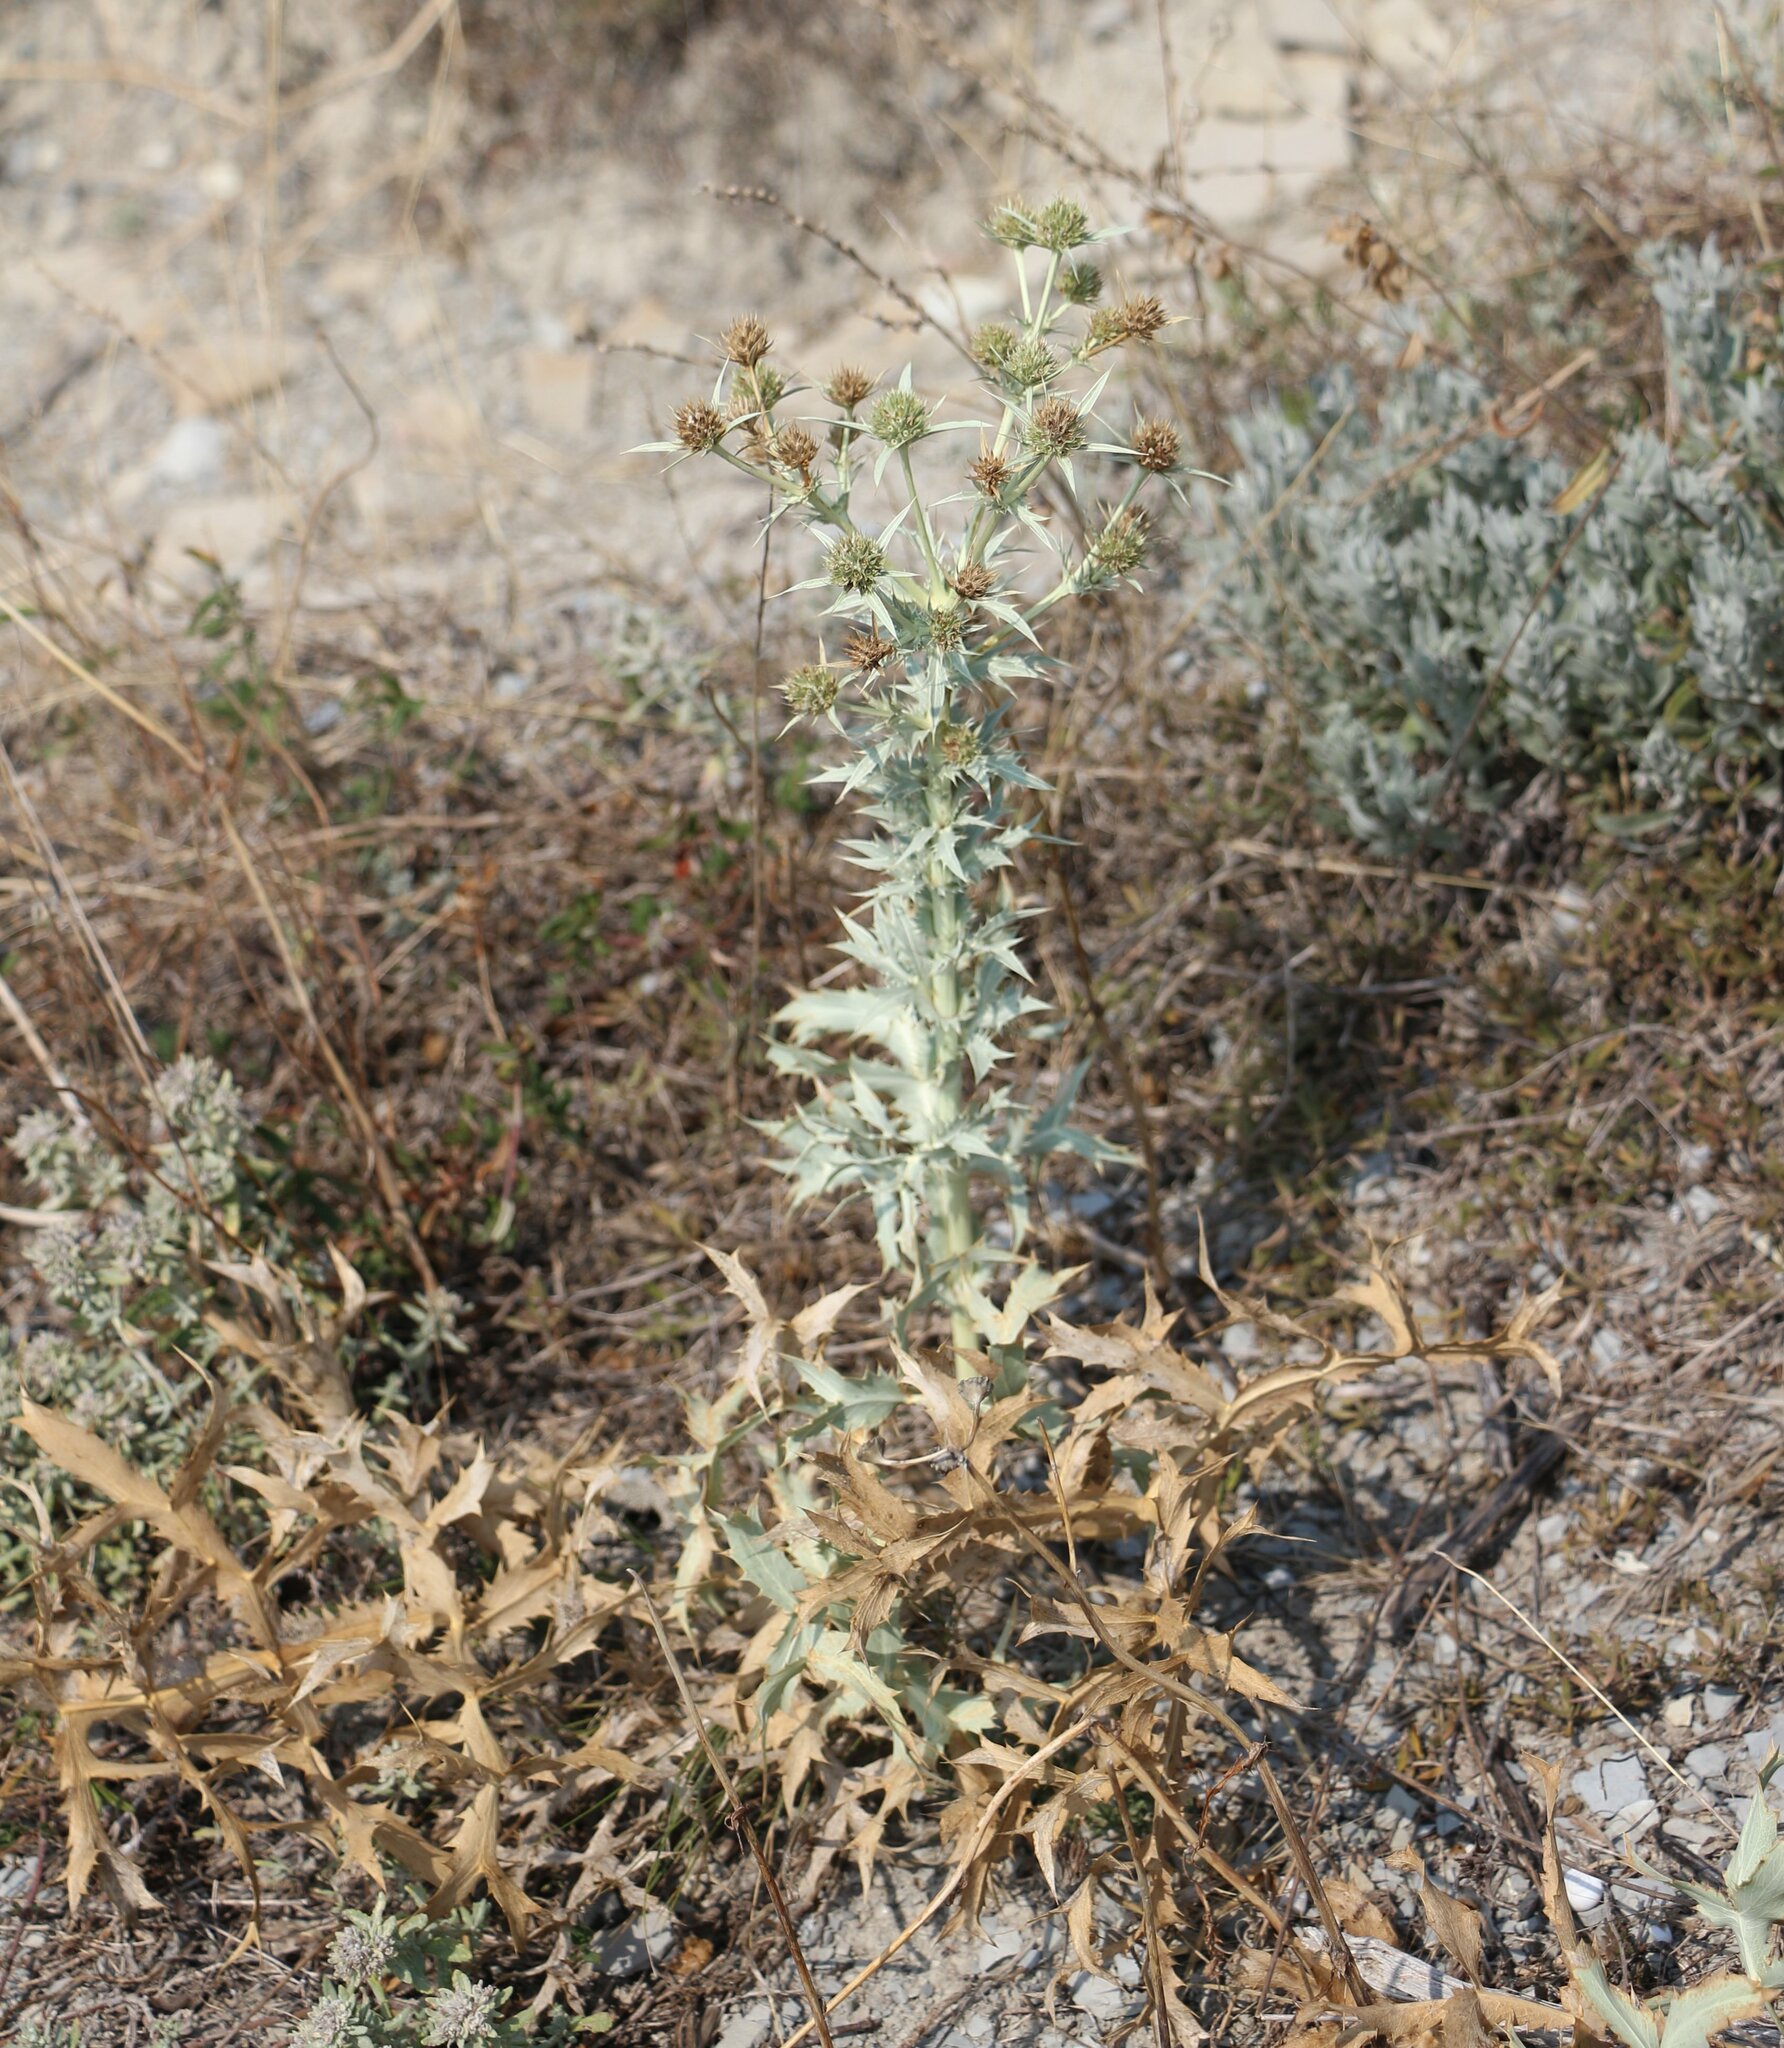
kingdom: Plantae
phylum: Tracheophyta
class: Magnoliopsida
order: Apiales
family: Apiaceae
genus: Eryngium
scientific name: Eryngium campestre
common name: Field eryngo
